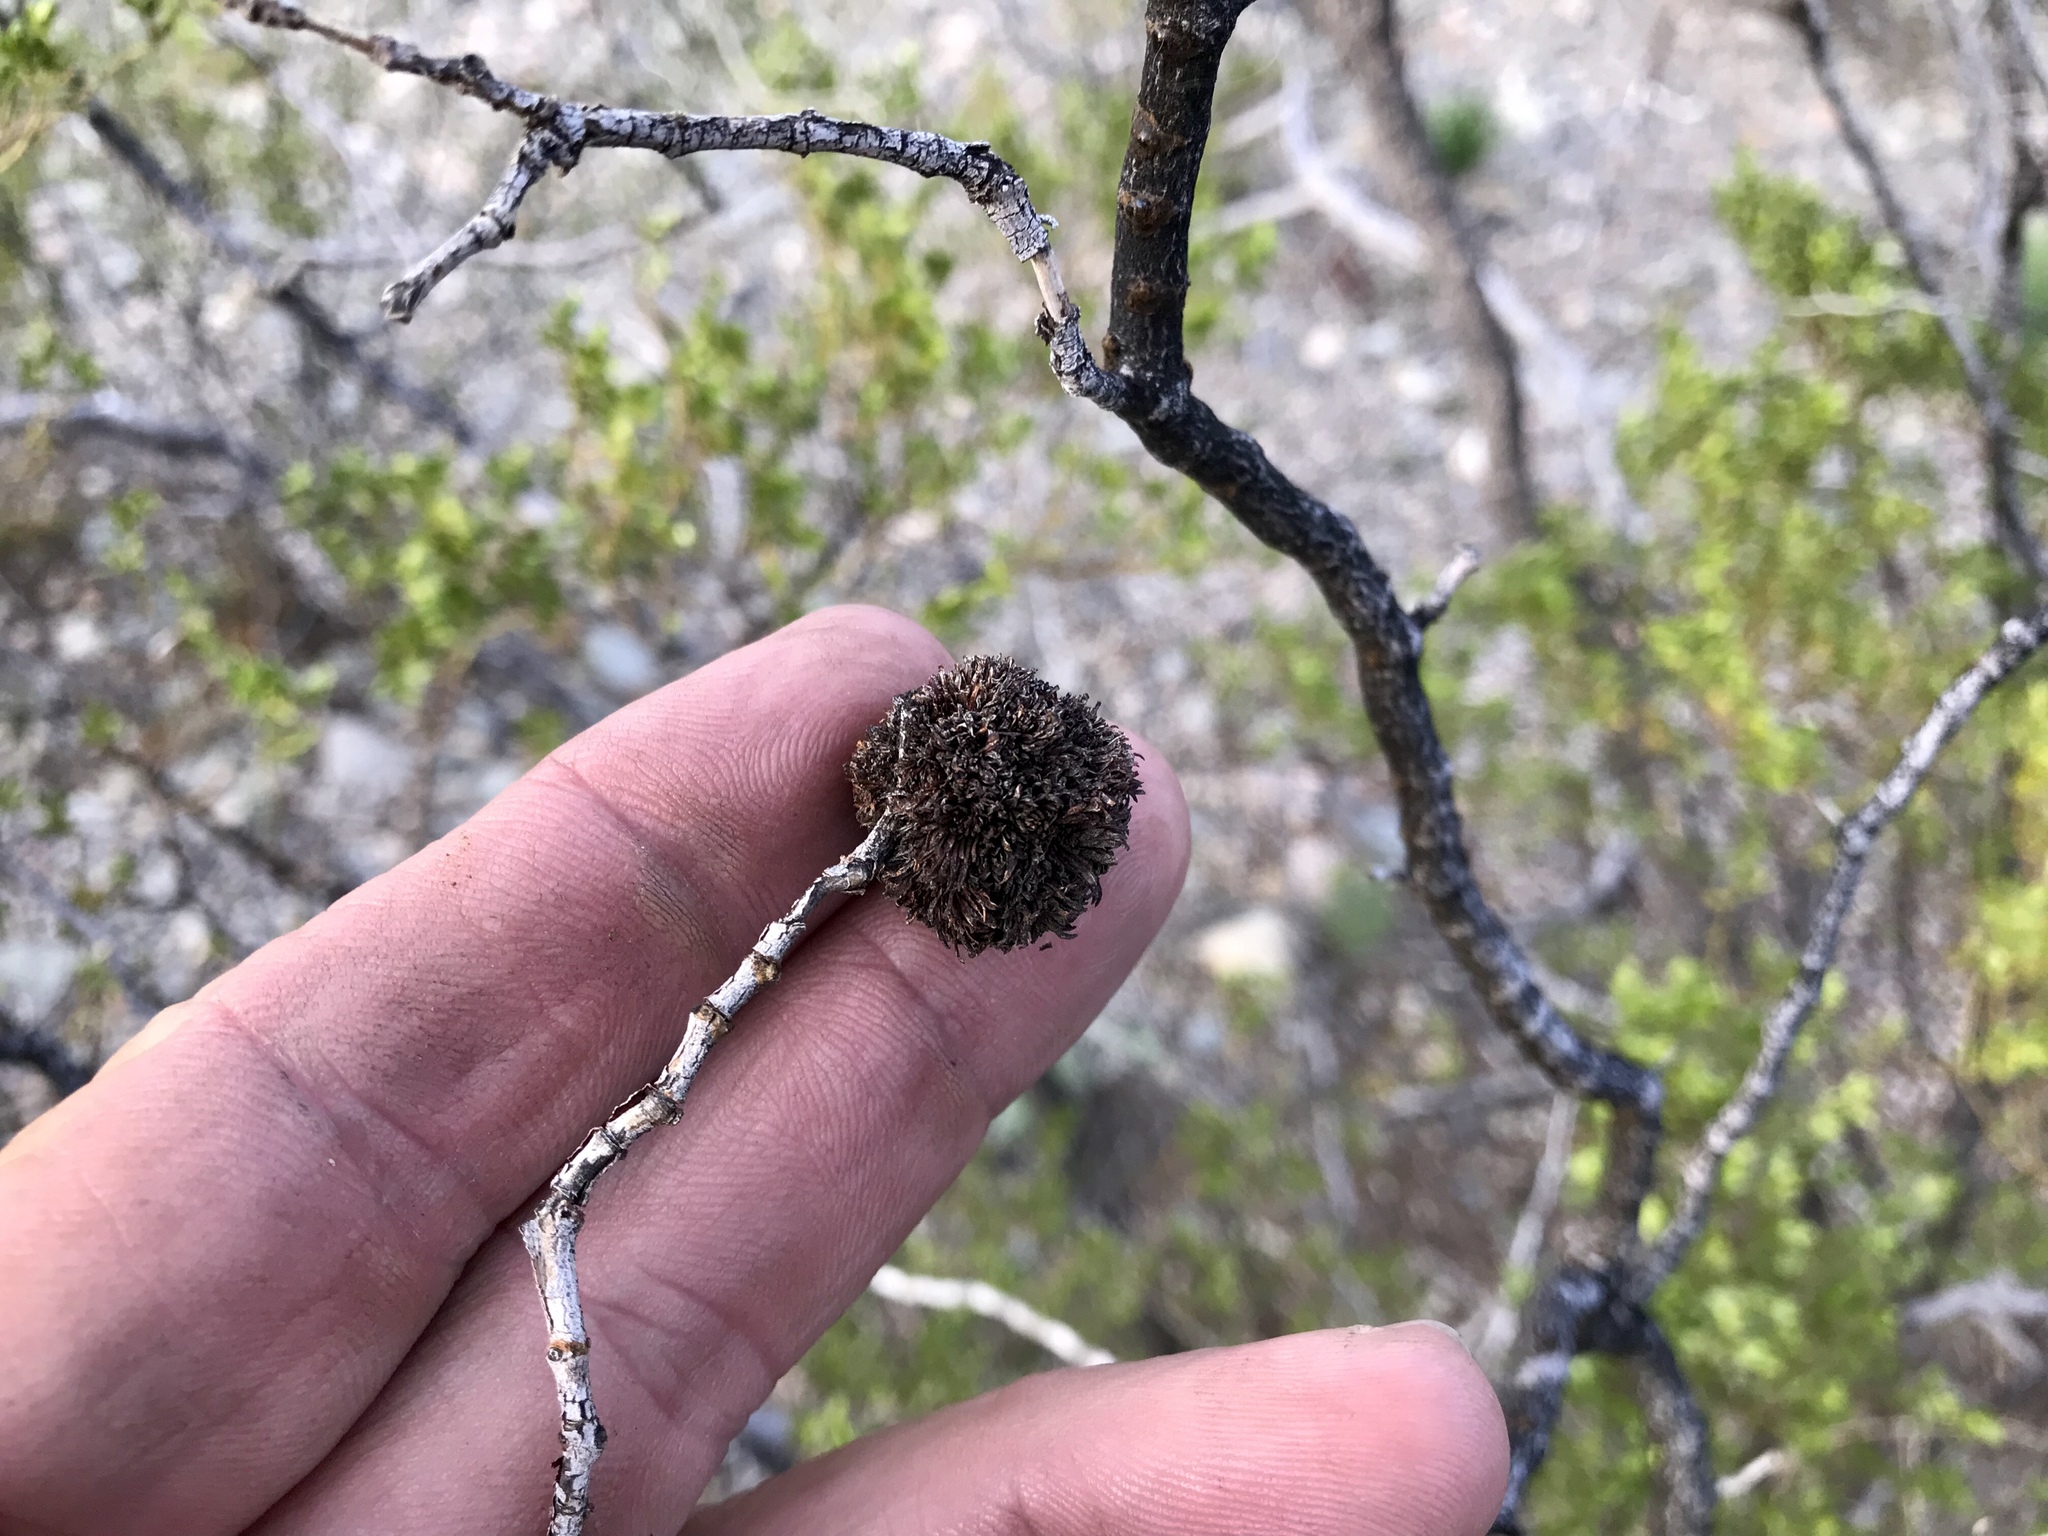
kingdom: Animalia
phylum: Arthropoda
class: Insecta
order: Diptera
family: Cecidomyiidae
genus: Asphondylia
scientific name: Asphondylia auripila
